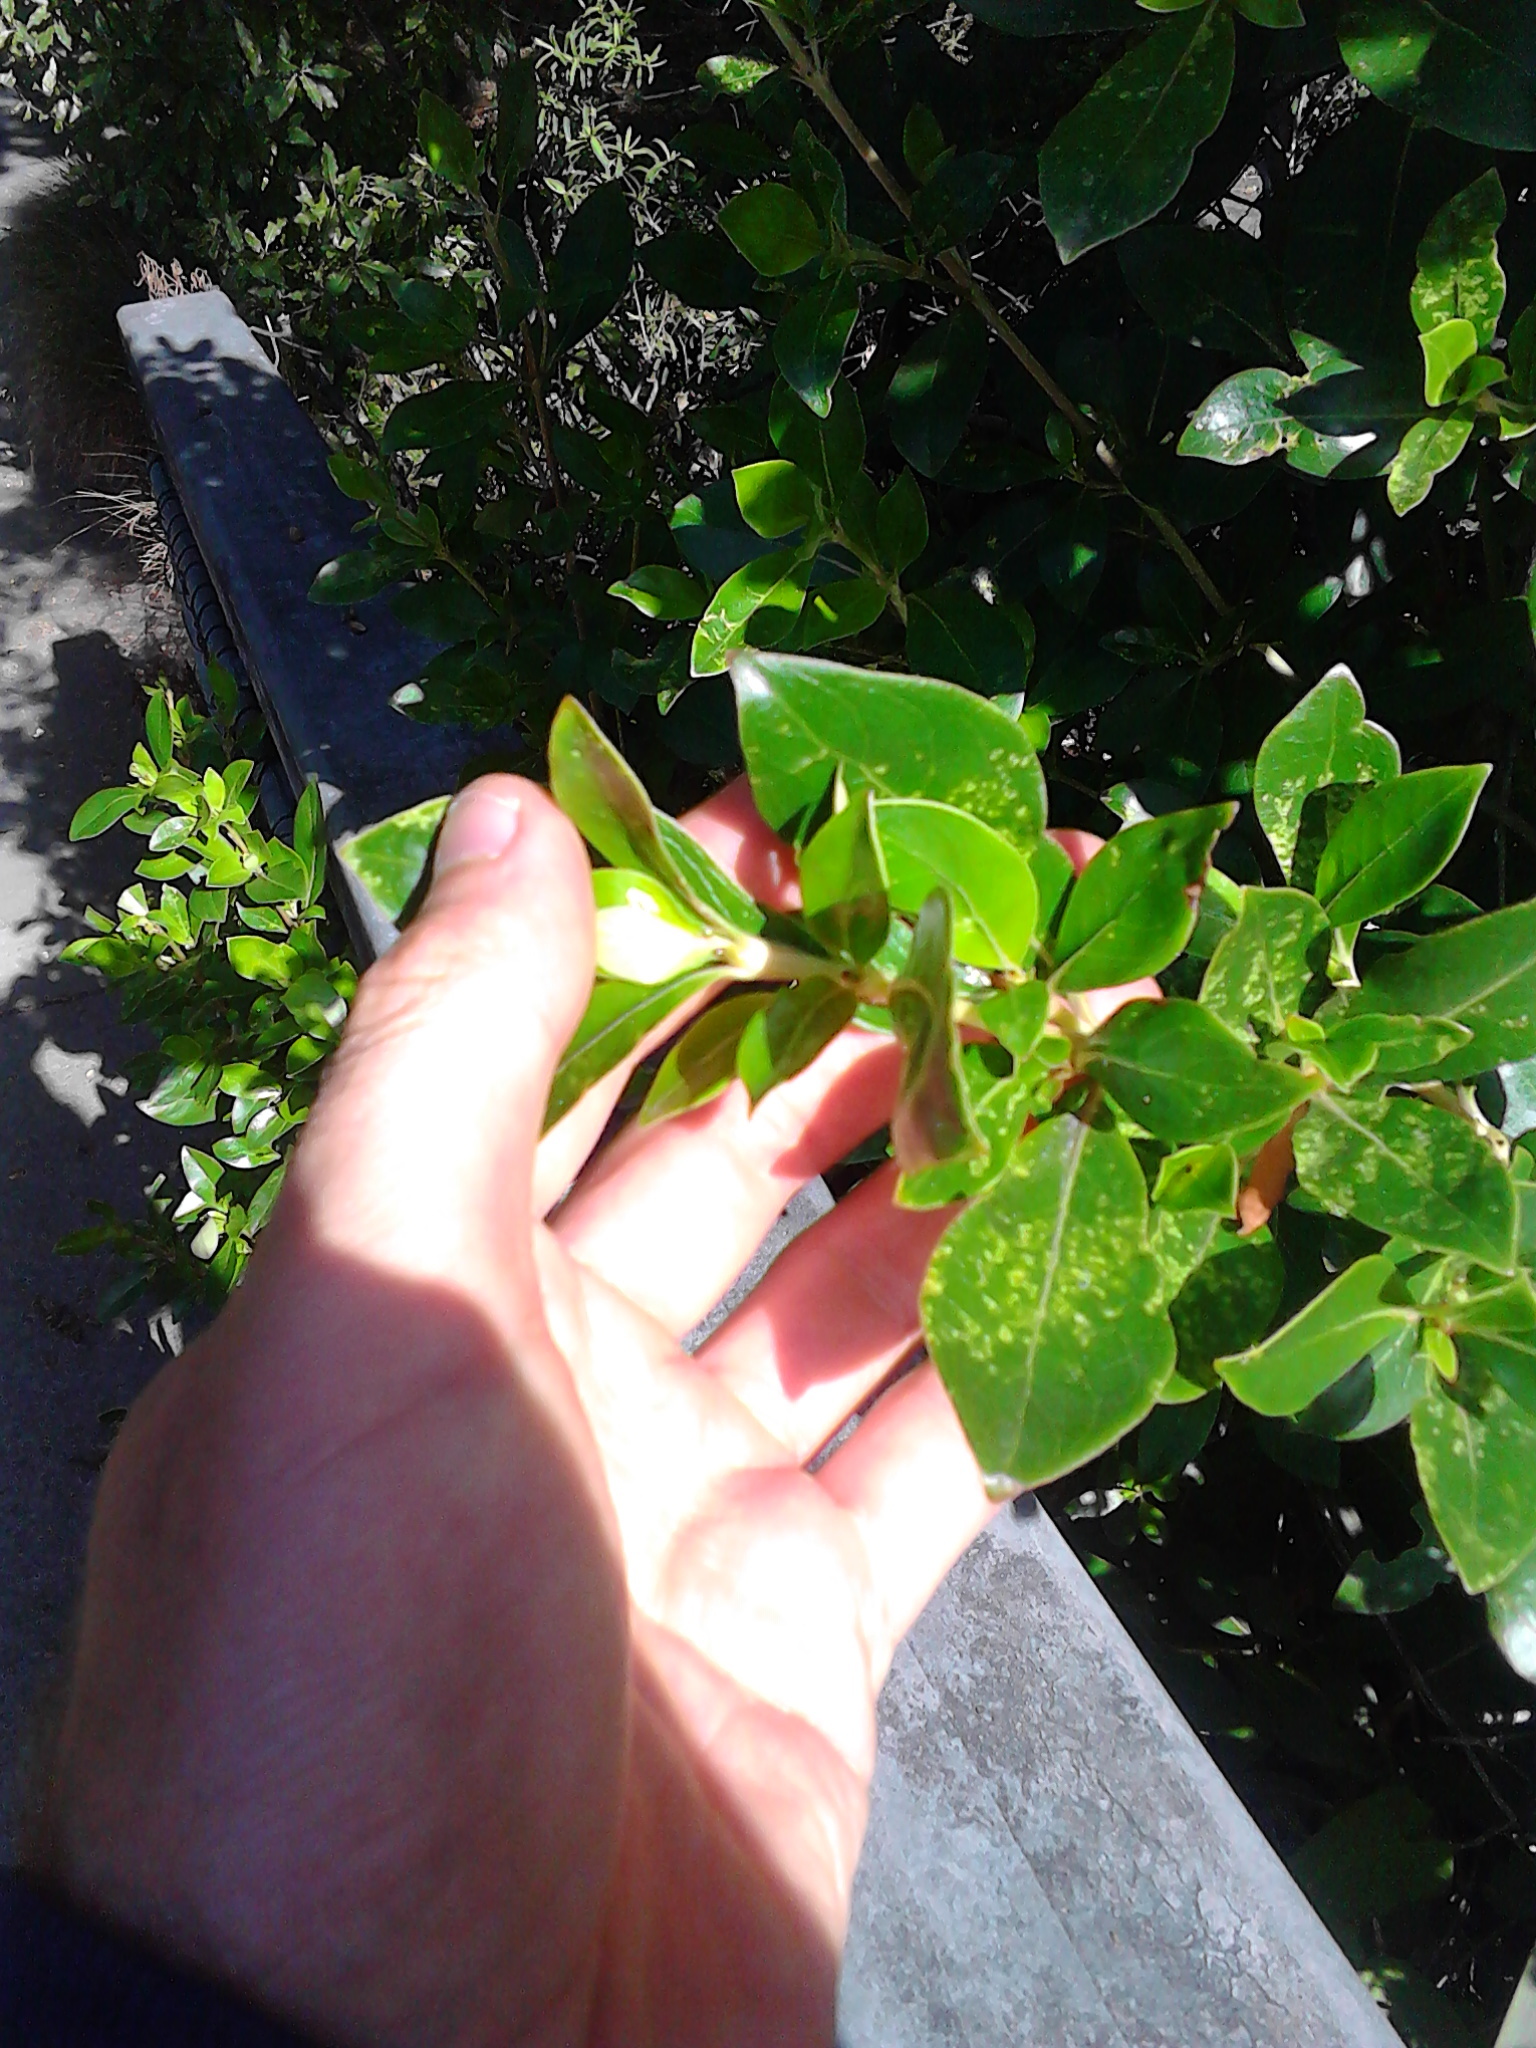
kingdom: Plantae
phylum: Tracheophyta
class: Magnoliopsida
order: Gentianales
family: Rubiaceae
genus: Coprosma
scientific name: Coprosma robusta
